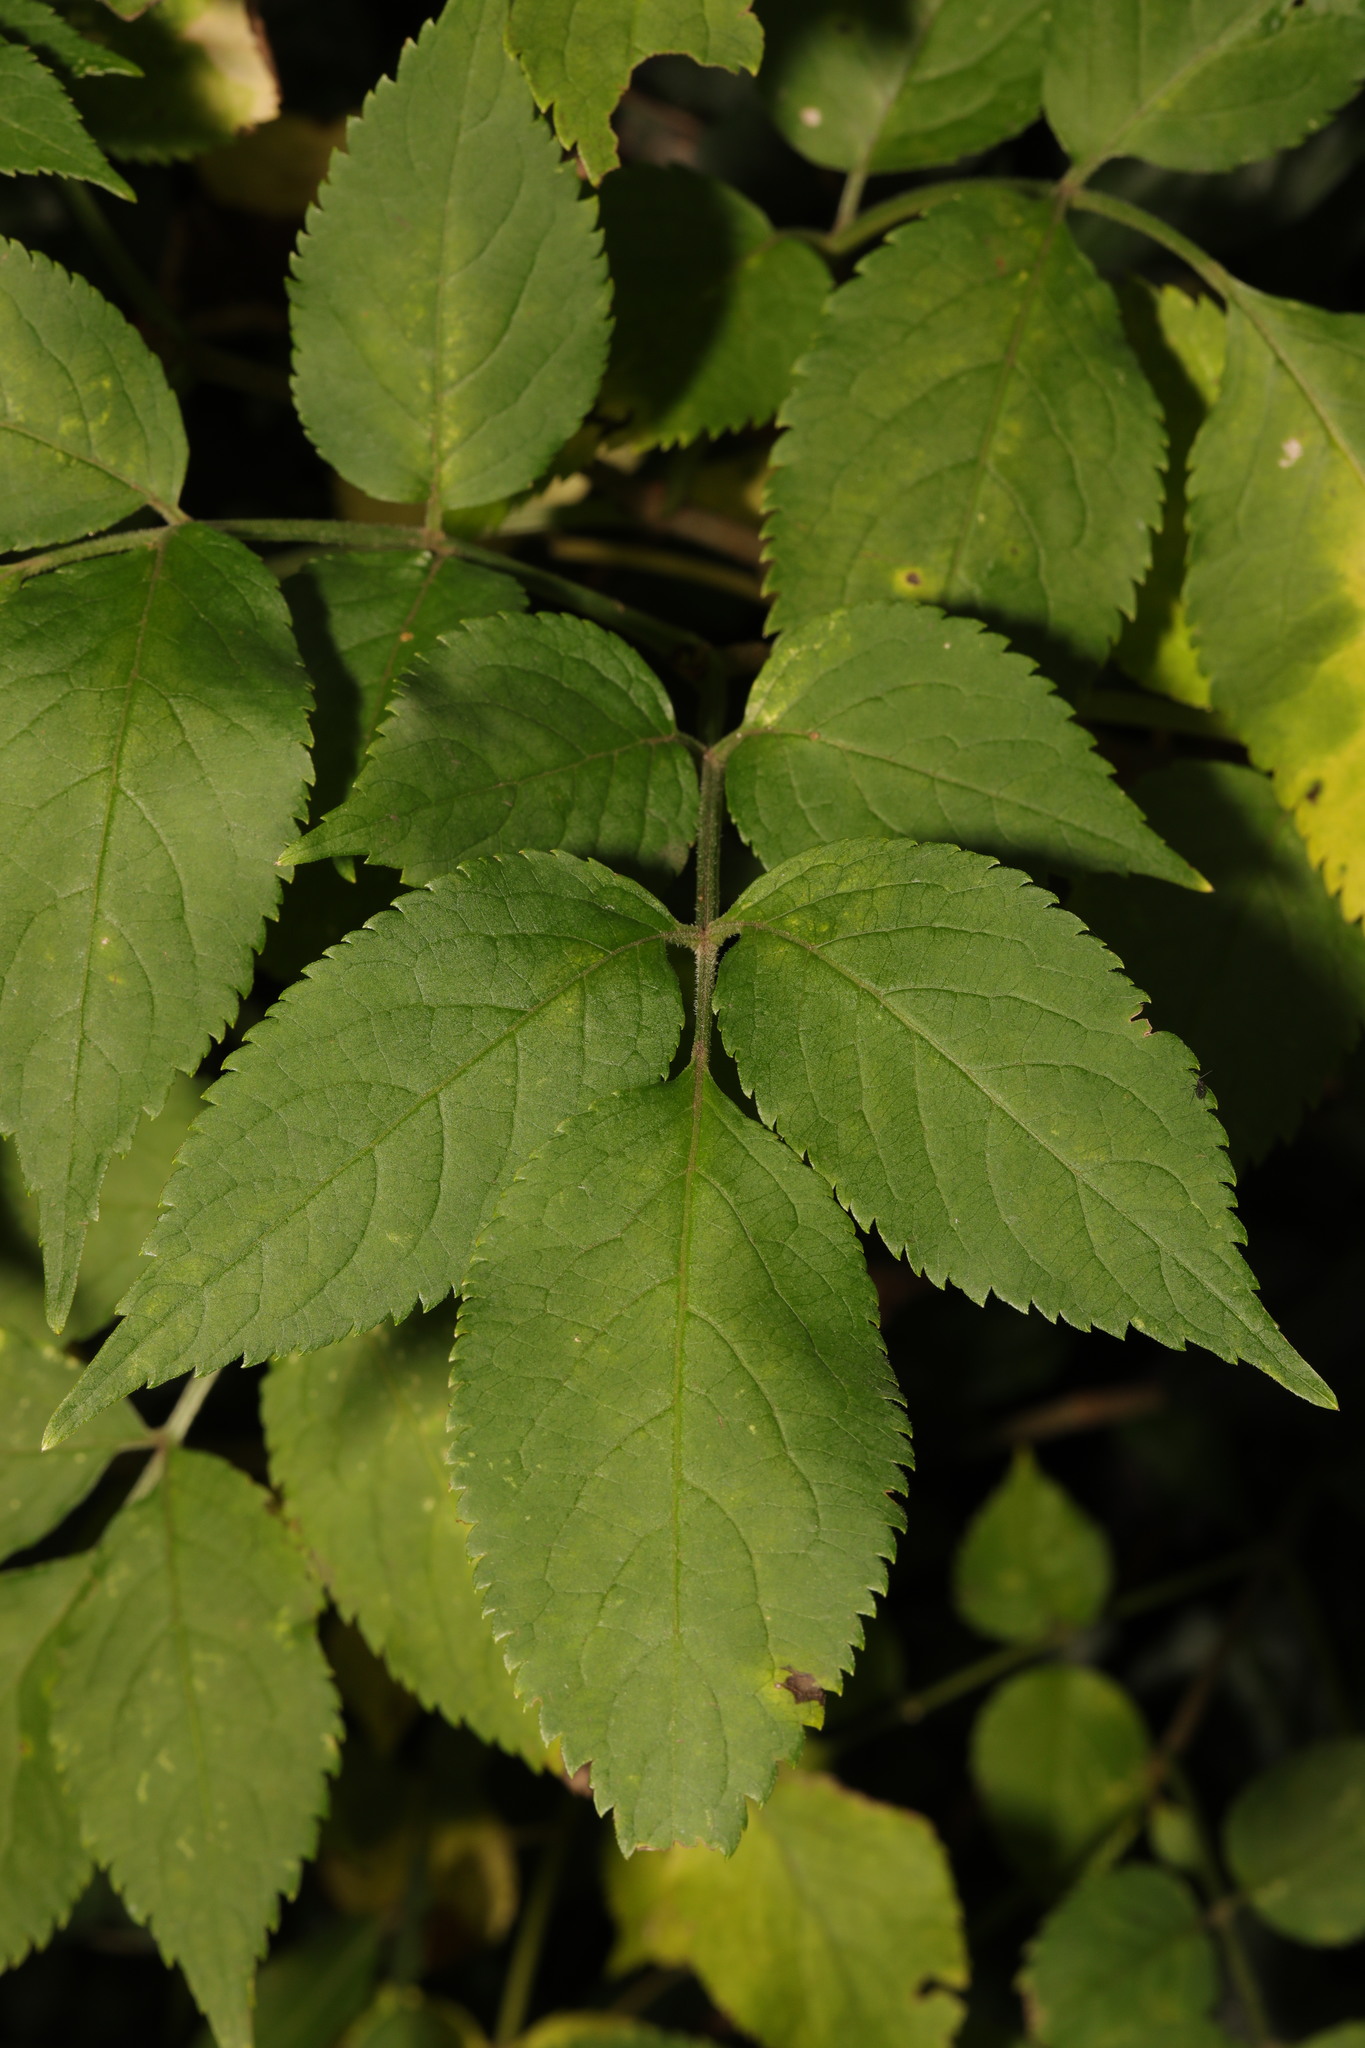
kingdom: Plantae
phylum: Tracheophyta
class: Magnoliopsida
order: Dipsacales
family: Viburnaceae
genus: Sambucus
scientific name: Sambucus nigra
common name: Elder
